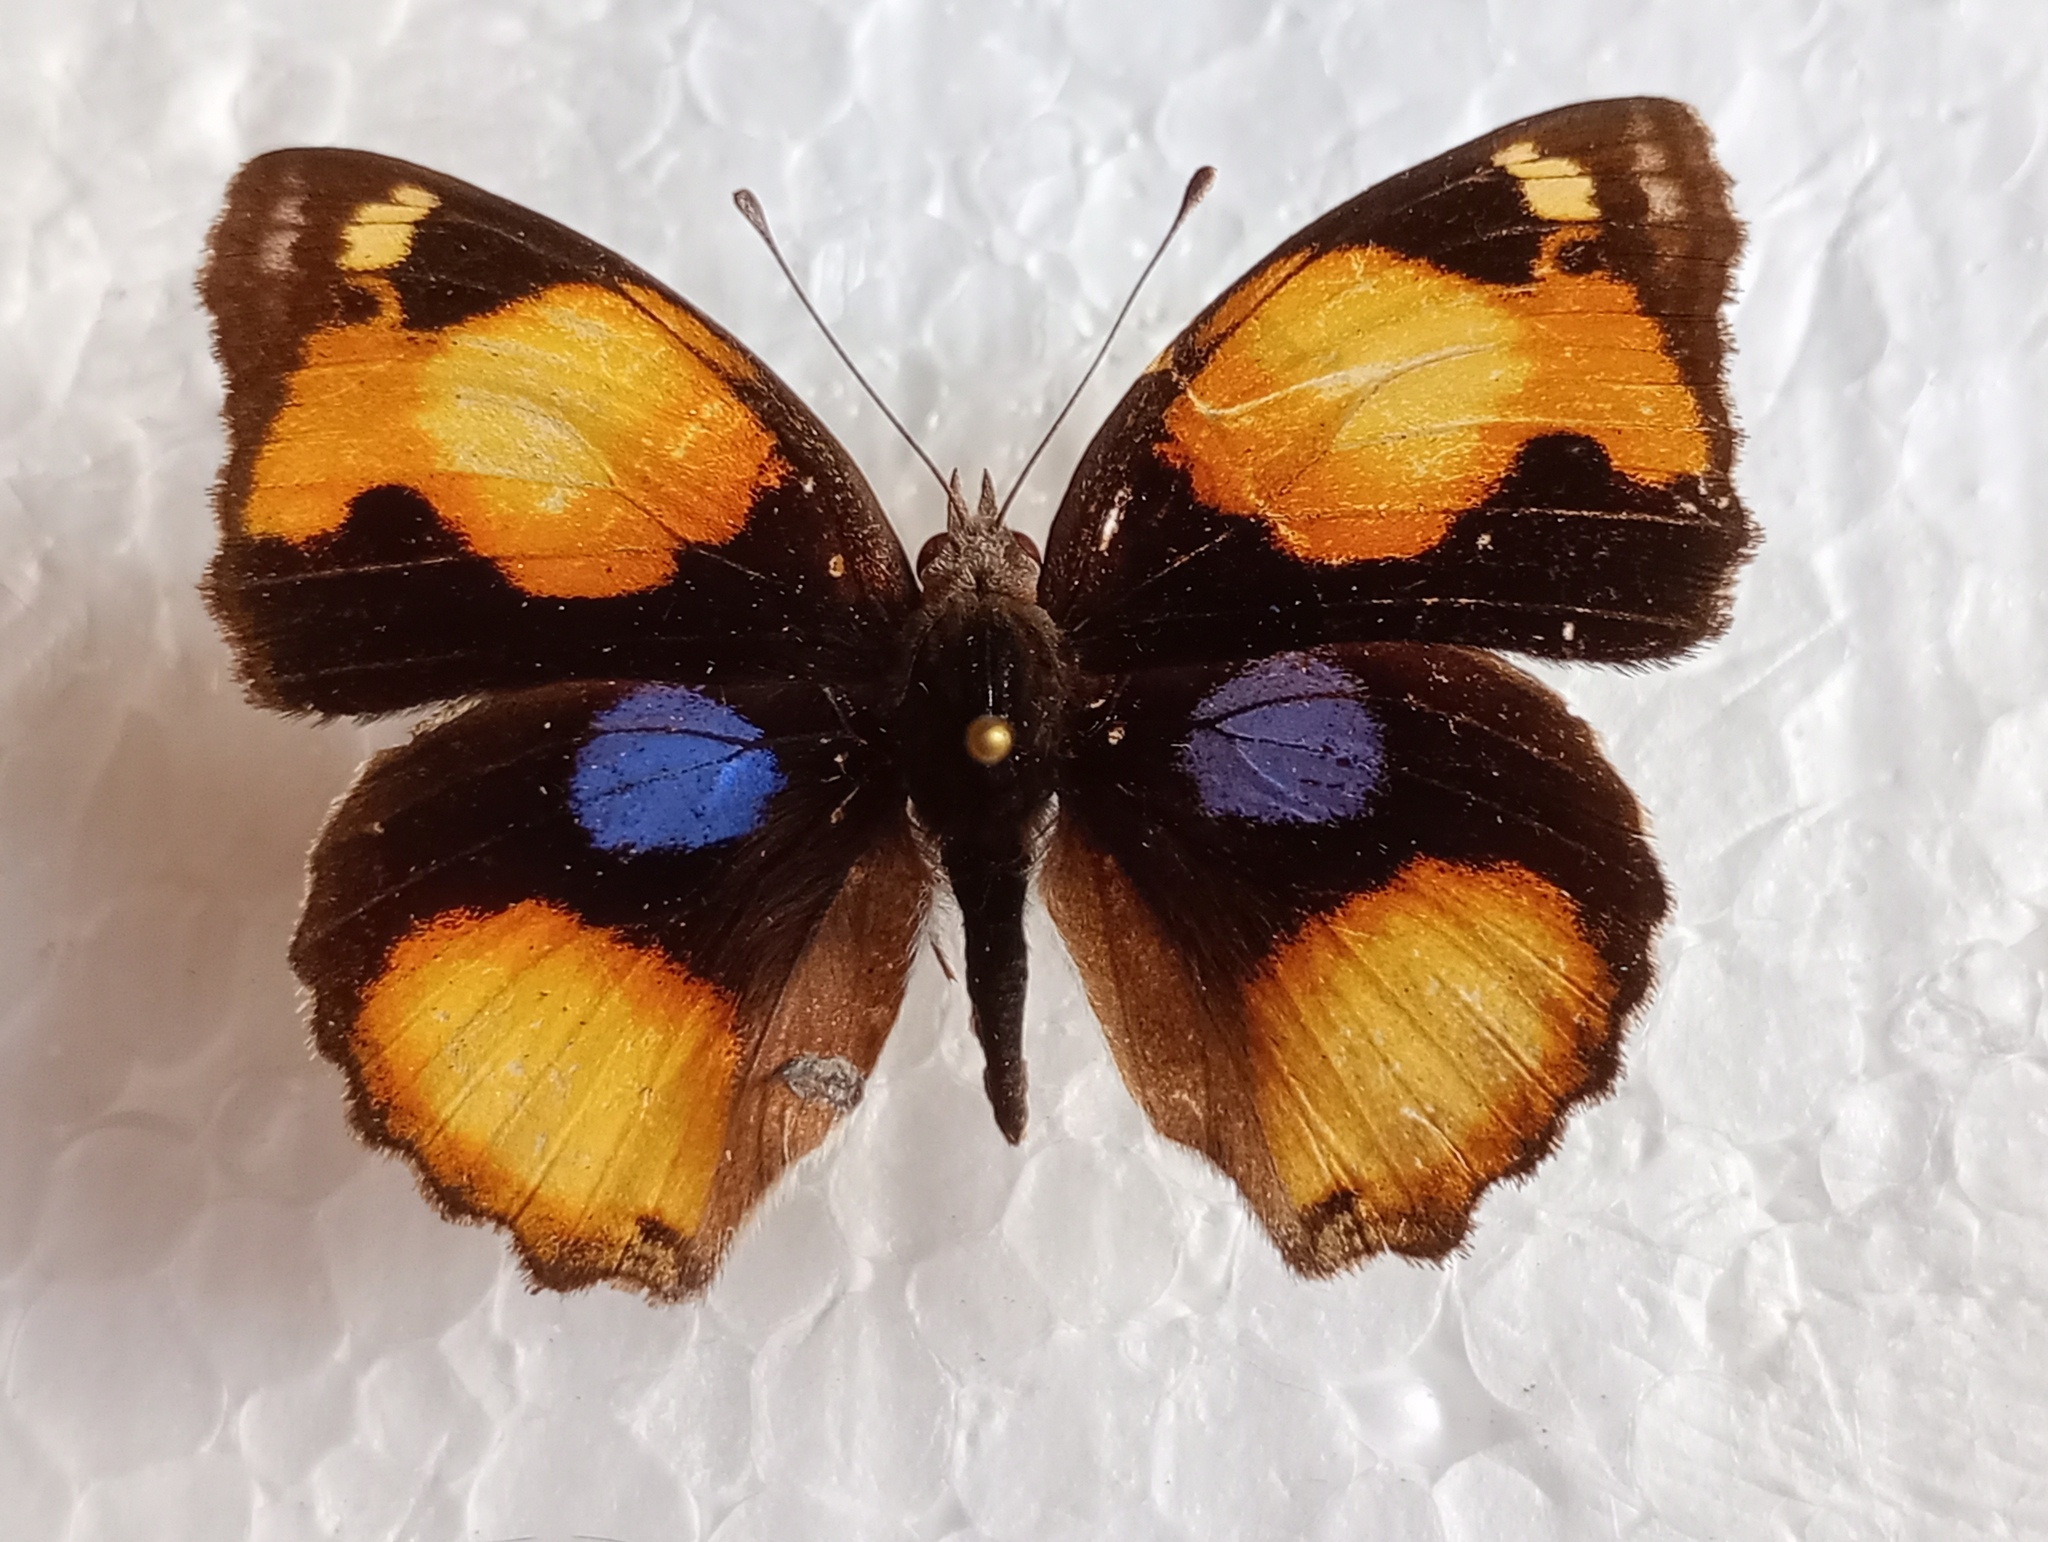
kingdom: Animalia
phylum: Arthropoda
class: Insecta
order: Lepidoptera
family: Nymphalidae
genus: Junonia
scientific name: Junonia hierta
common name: Yellow pansy
